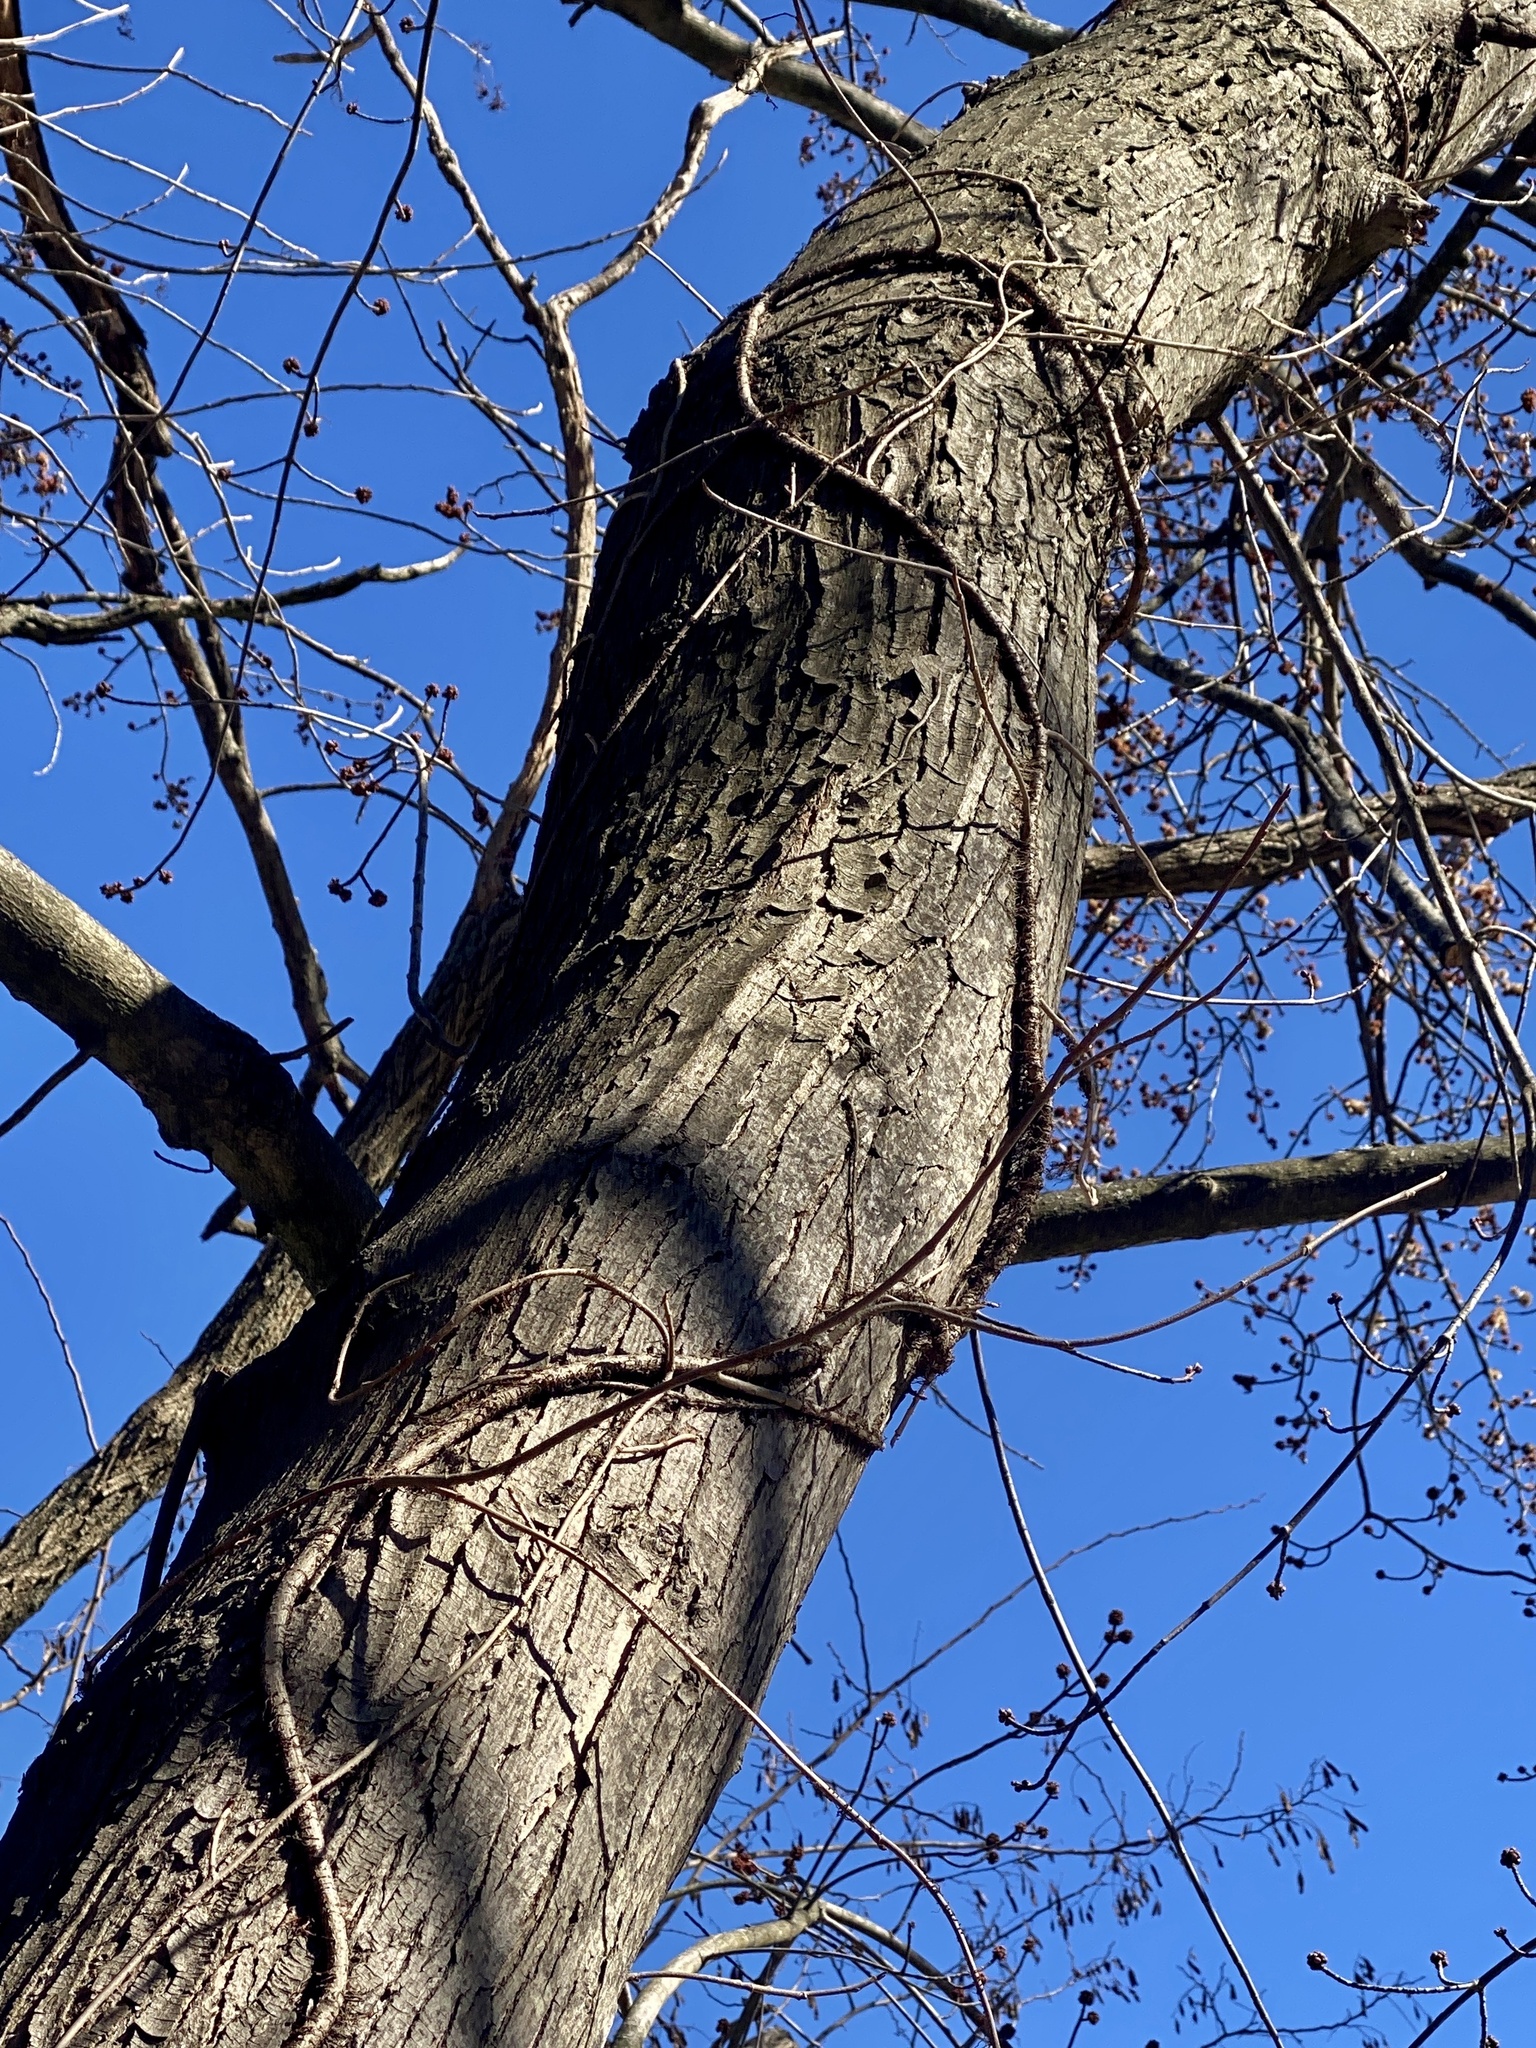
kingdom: Plantae
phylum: Tracheophyta
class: Magnoliopsida
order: Sapindales
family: Sapindaceae
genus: Acer
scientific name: Acer saccharinum
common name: Silver maple
